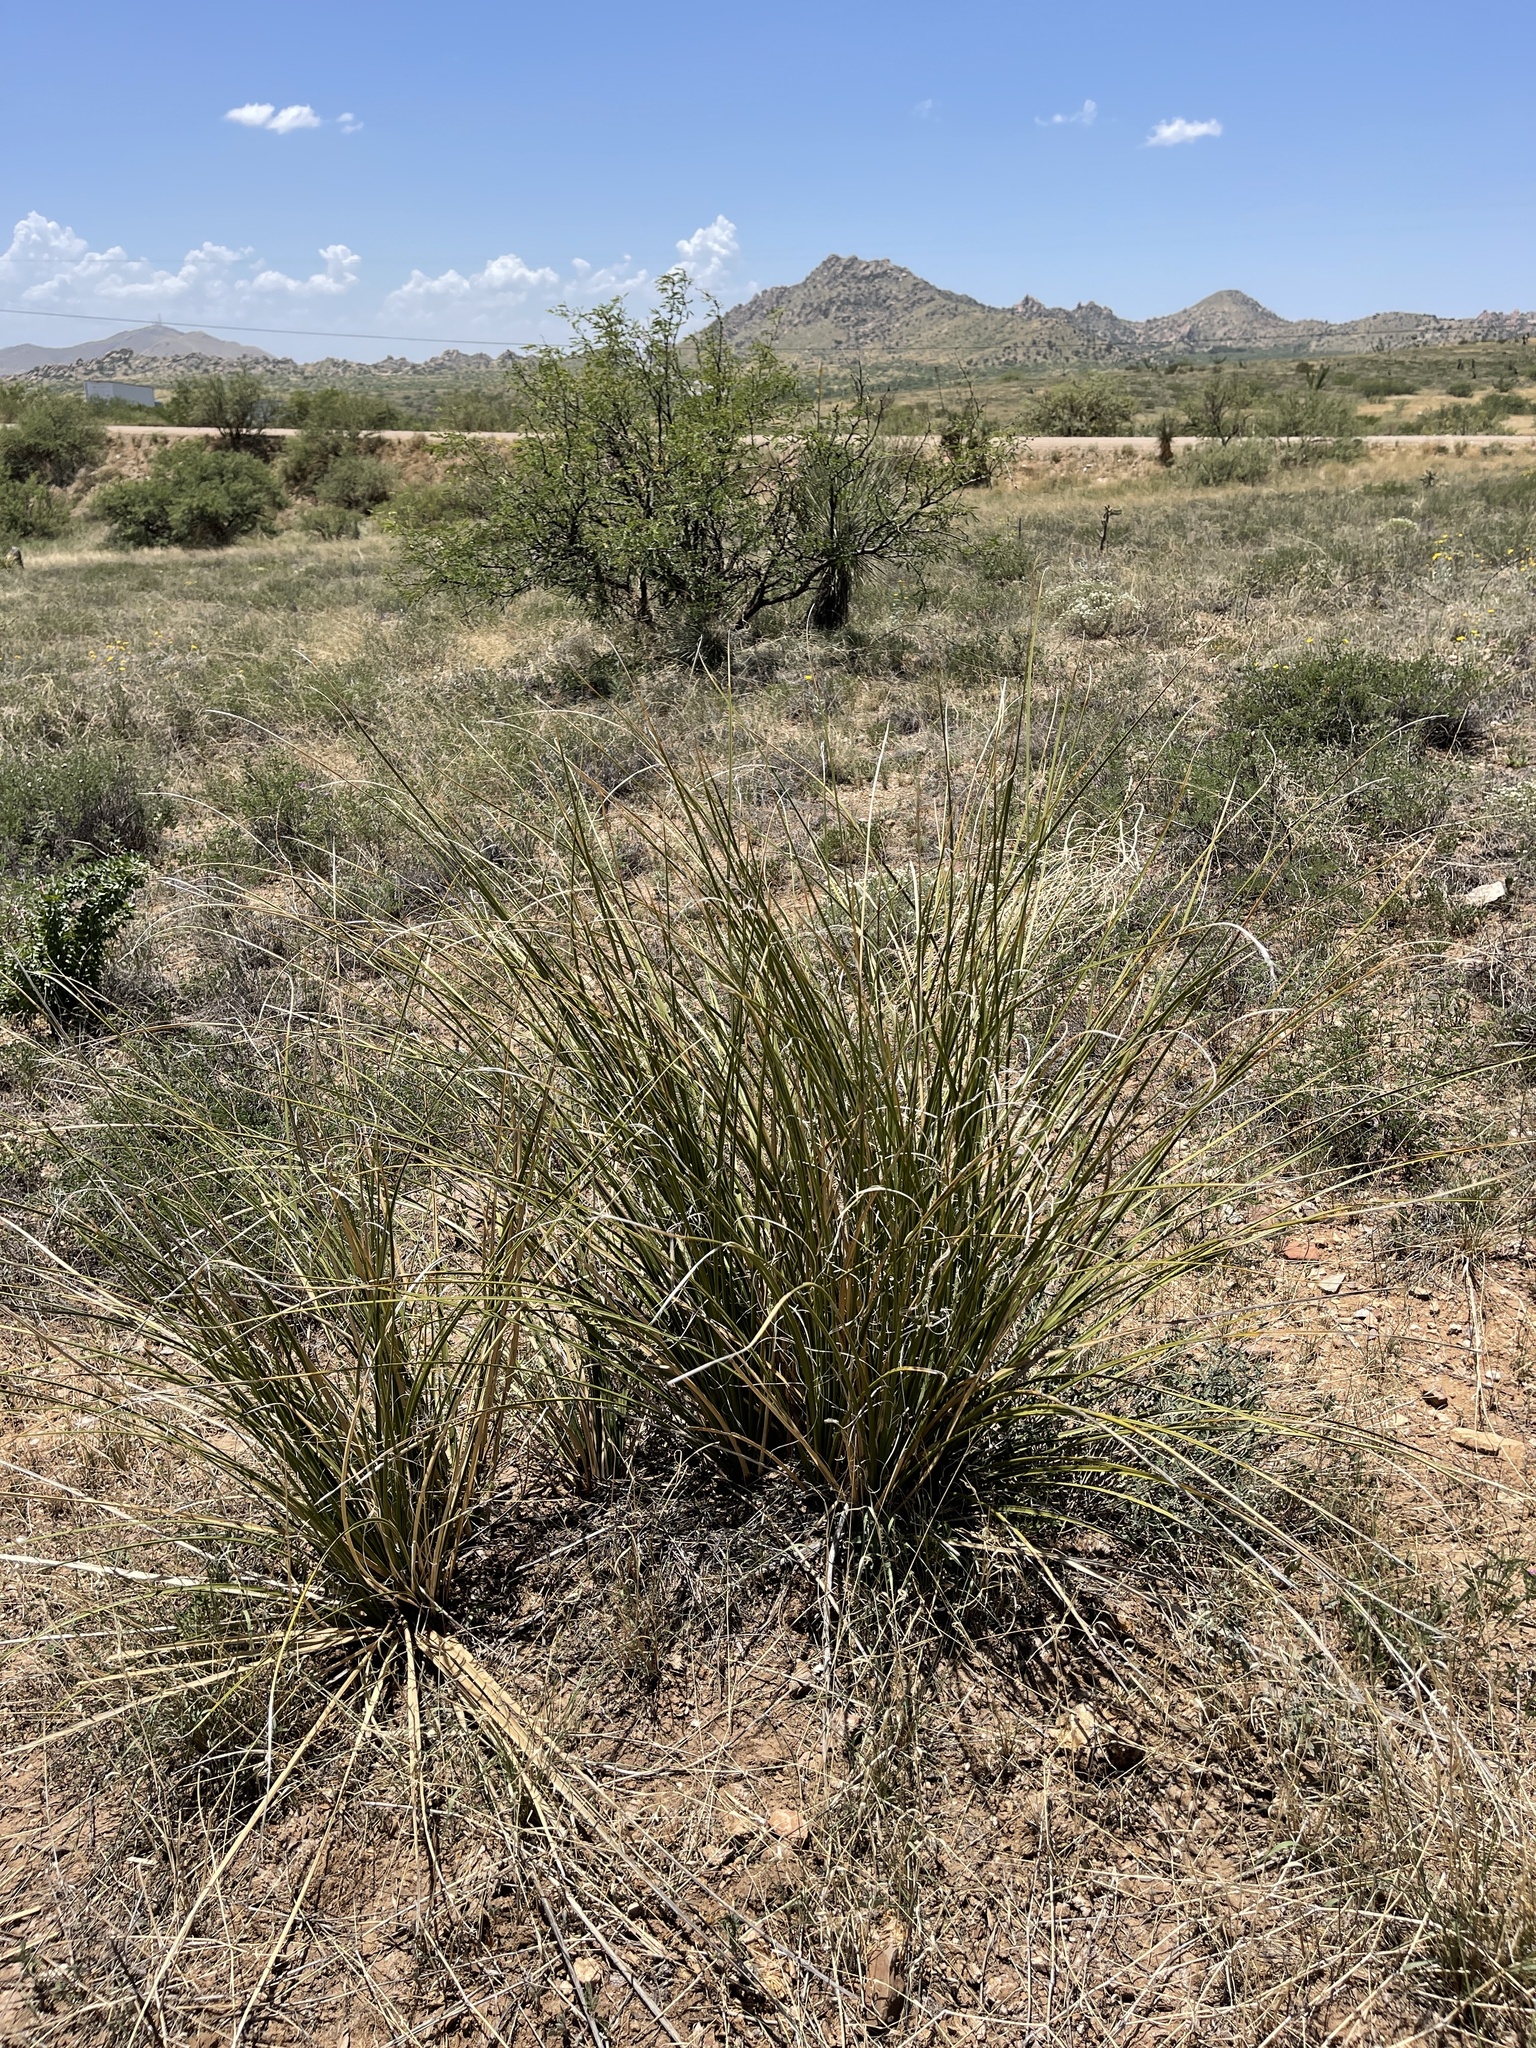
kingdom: Plantae
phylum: Tracheophyta
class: Liliopsida
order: Asparagales
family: Asparagaceae
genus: Nolina
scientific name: Nolina microcarpa
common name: Bear-grass
